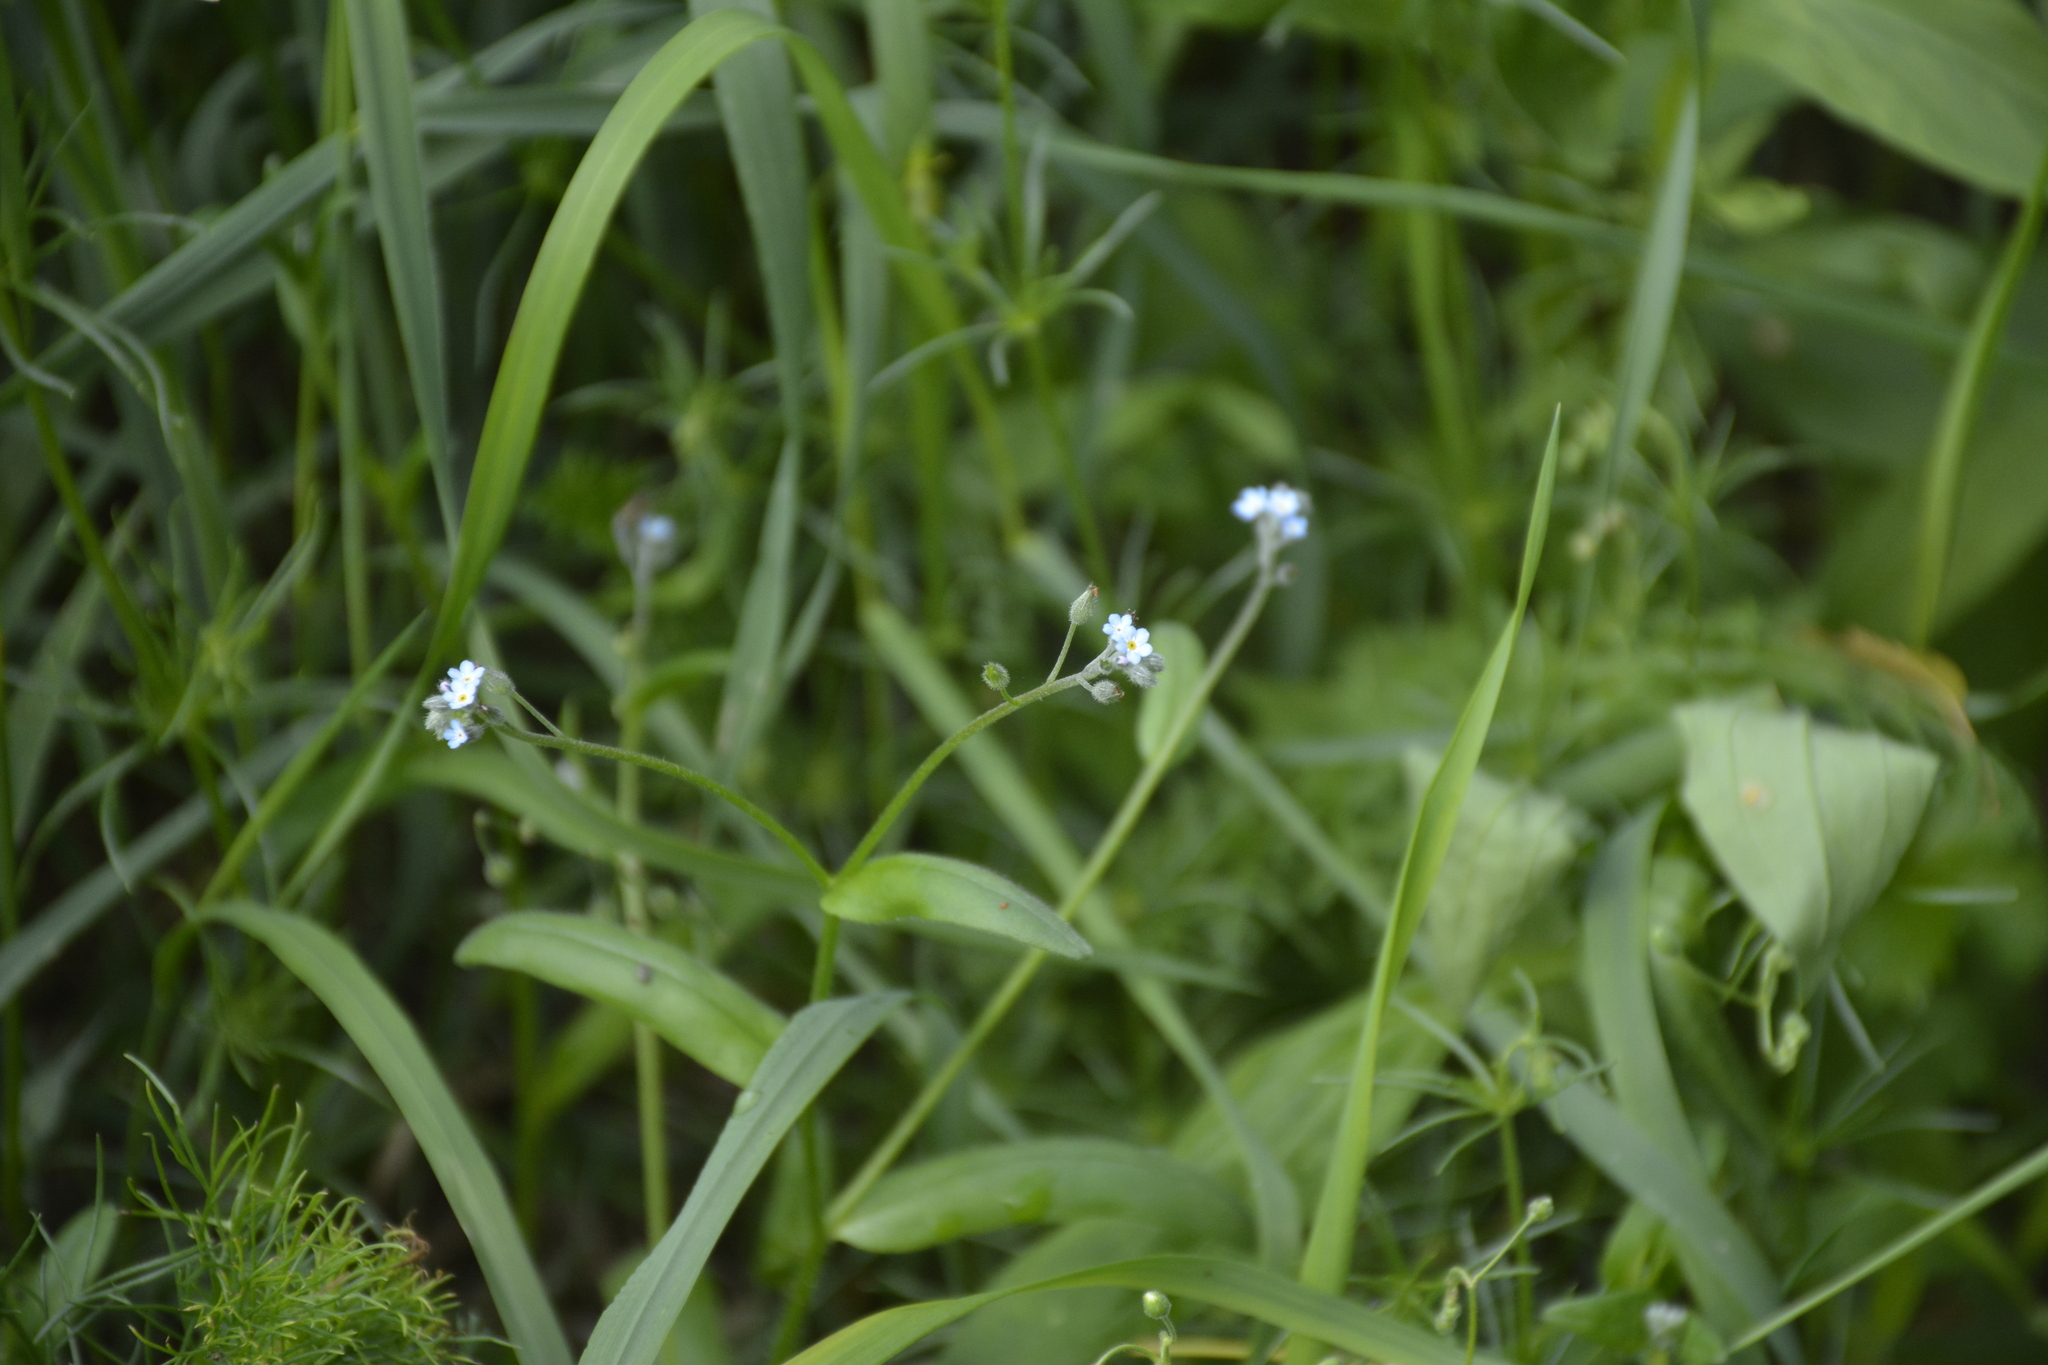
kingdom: Plantae
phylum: Tracheophyta
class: Magnoliopsida
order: Boraginales
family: Boraginaceae
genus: Myosotis
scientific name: Myosotis arvensis
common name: Field forget-me-not
